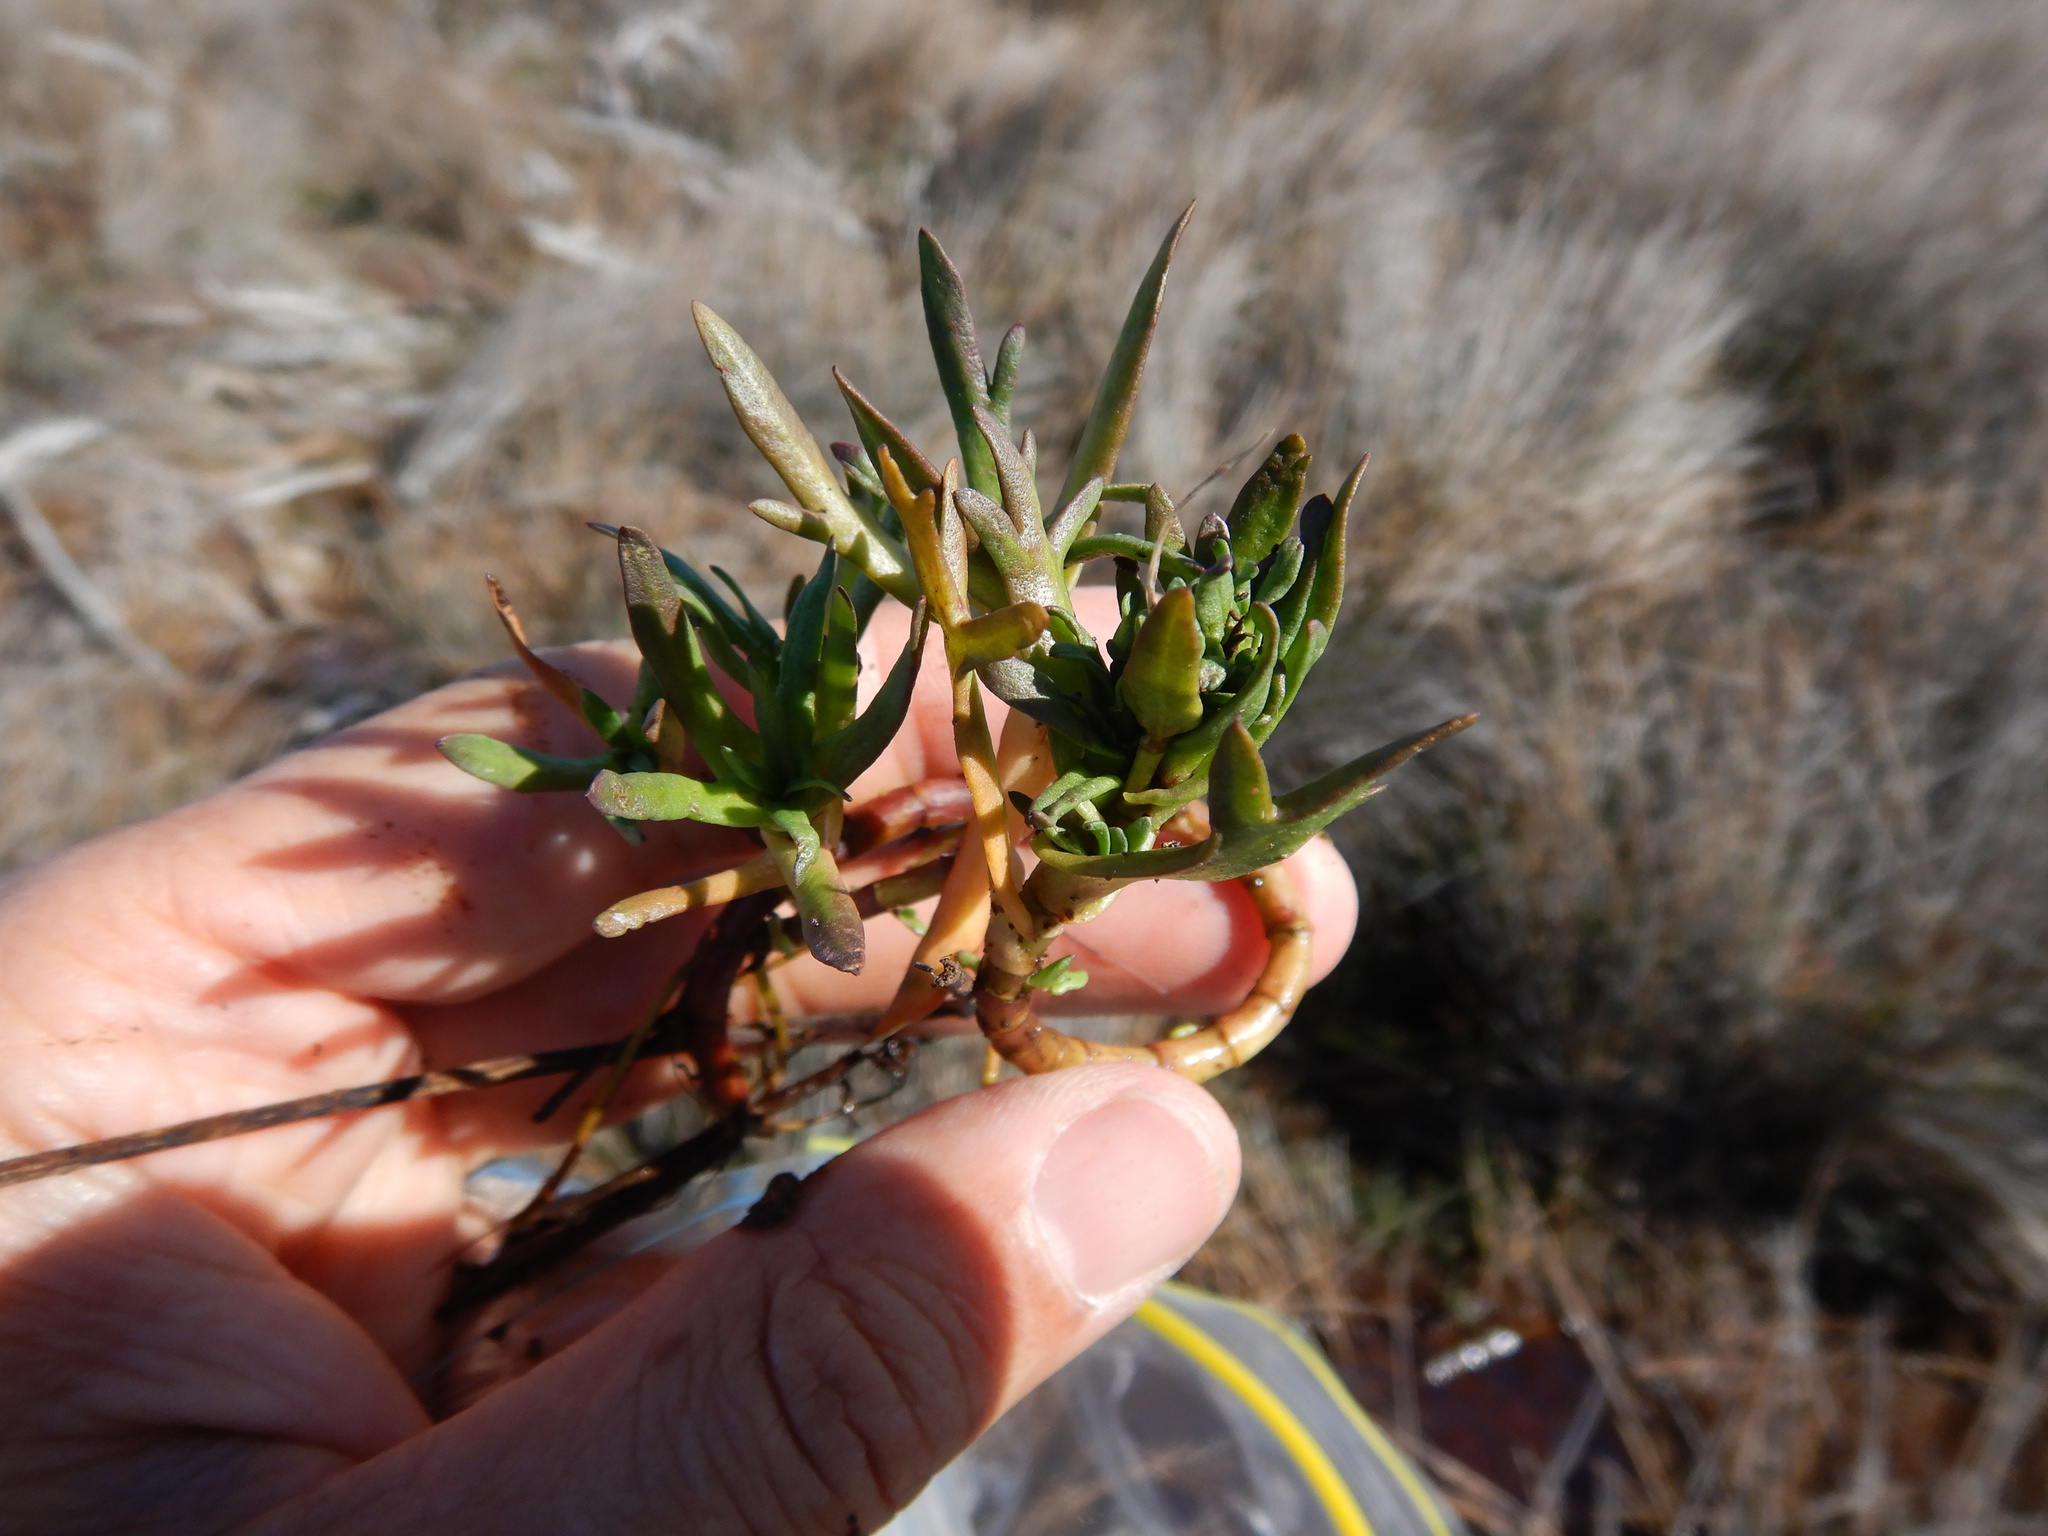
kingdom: Plantae
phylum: Tracheophyta
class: Magnoliopsida
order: Lamiales
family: Plantaginaceae
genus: Plantago
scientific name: Plantago coronopus
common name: Buck's-horn plantain
